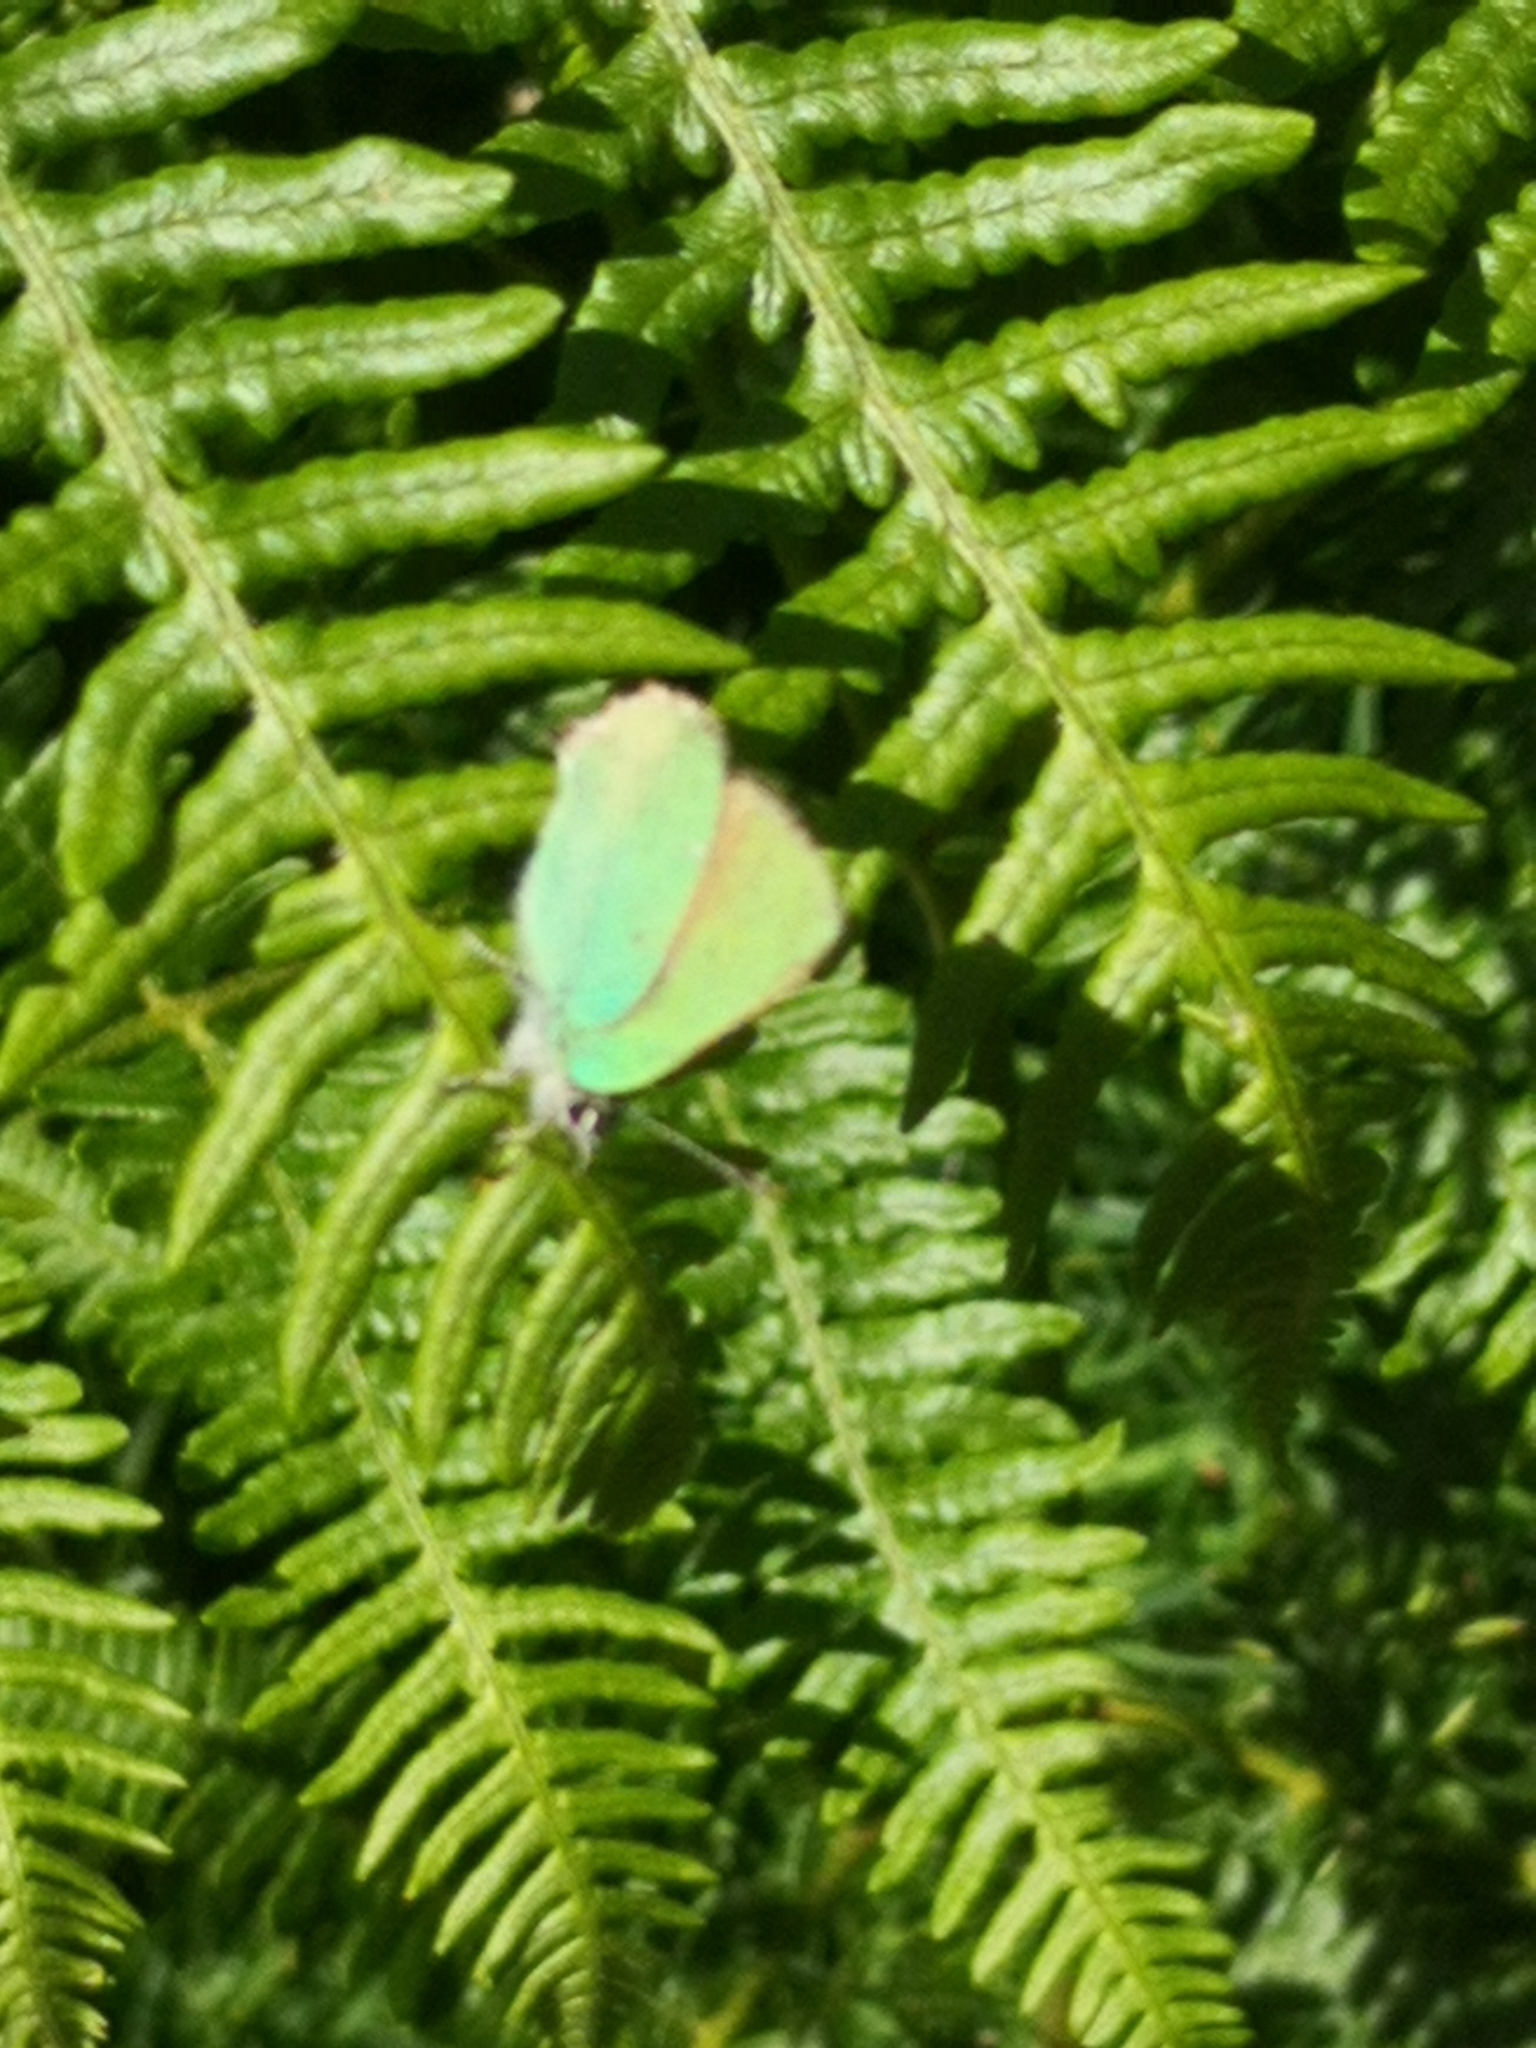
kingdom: Animalia
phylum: Arthropoda
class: Insecta
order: Lepidoptera
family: Lycaenidae
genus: Callophrys
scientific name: Callophrys rubi
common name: Green hairstreak
